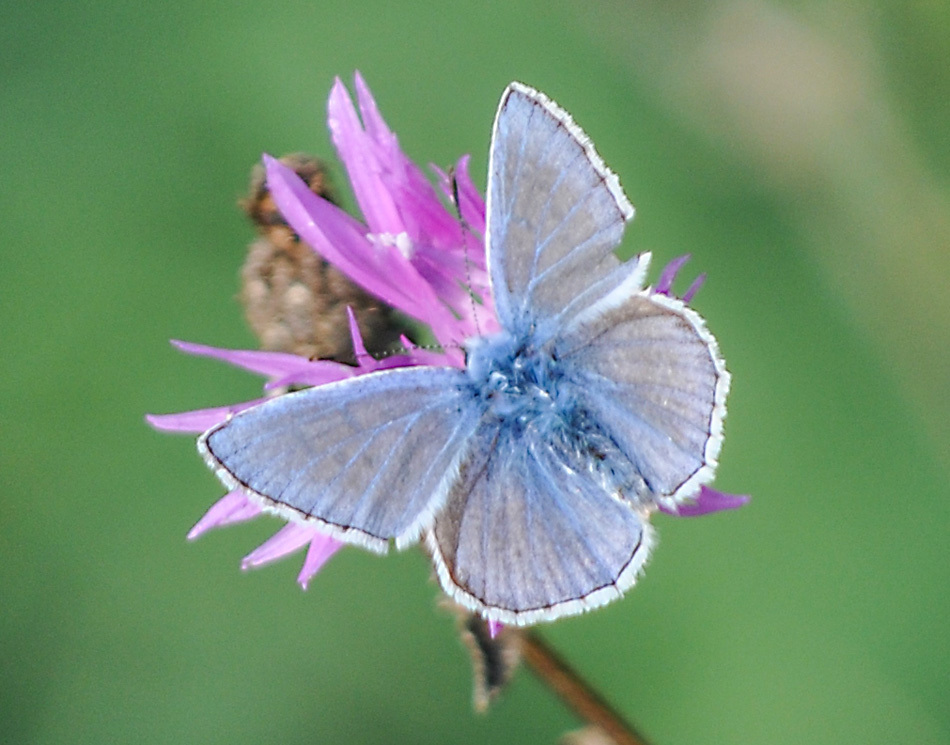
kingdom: Animalia
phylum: Arthropoda
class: Insecta
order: Lepidoptera
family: Lycaenidae
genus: Polyommatus
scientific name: Polyommatus icarus
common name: Common blue
